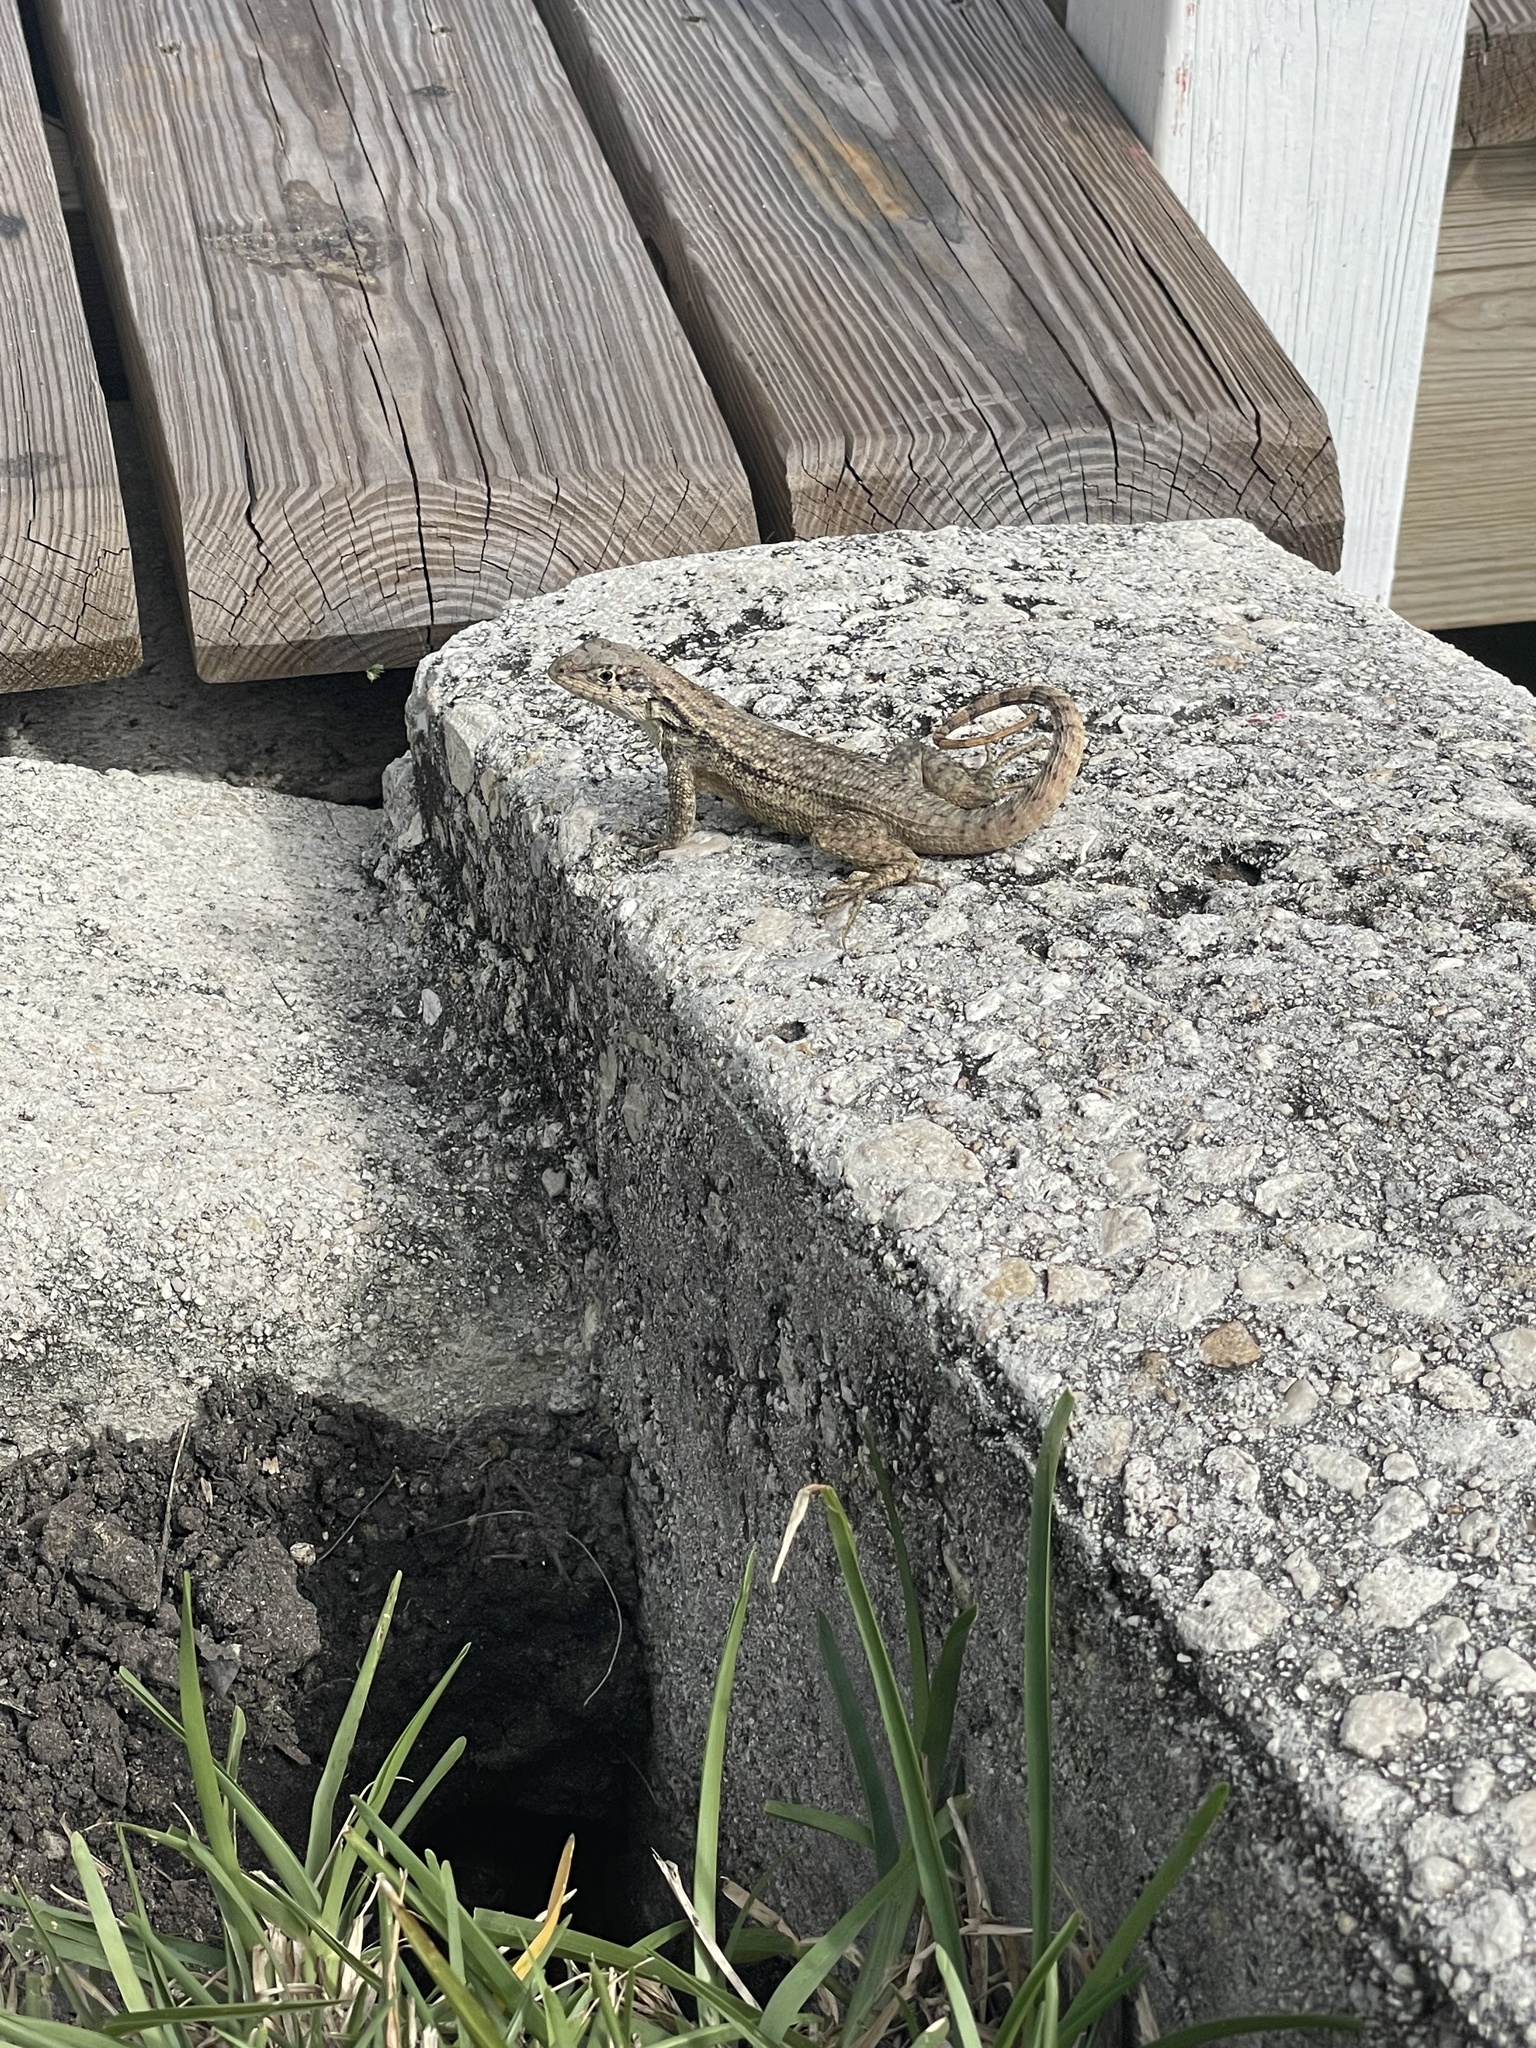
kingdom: Animalia
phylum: Chordata
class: Squamata
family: Leiocephalidae
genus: Leiocephalus
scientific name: Leiocephalus carinatus
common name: Northern curly-tailed lizard
